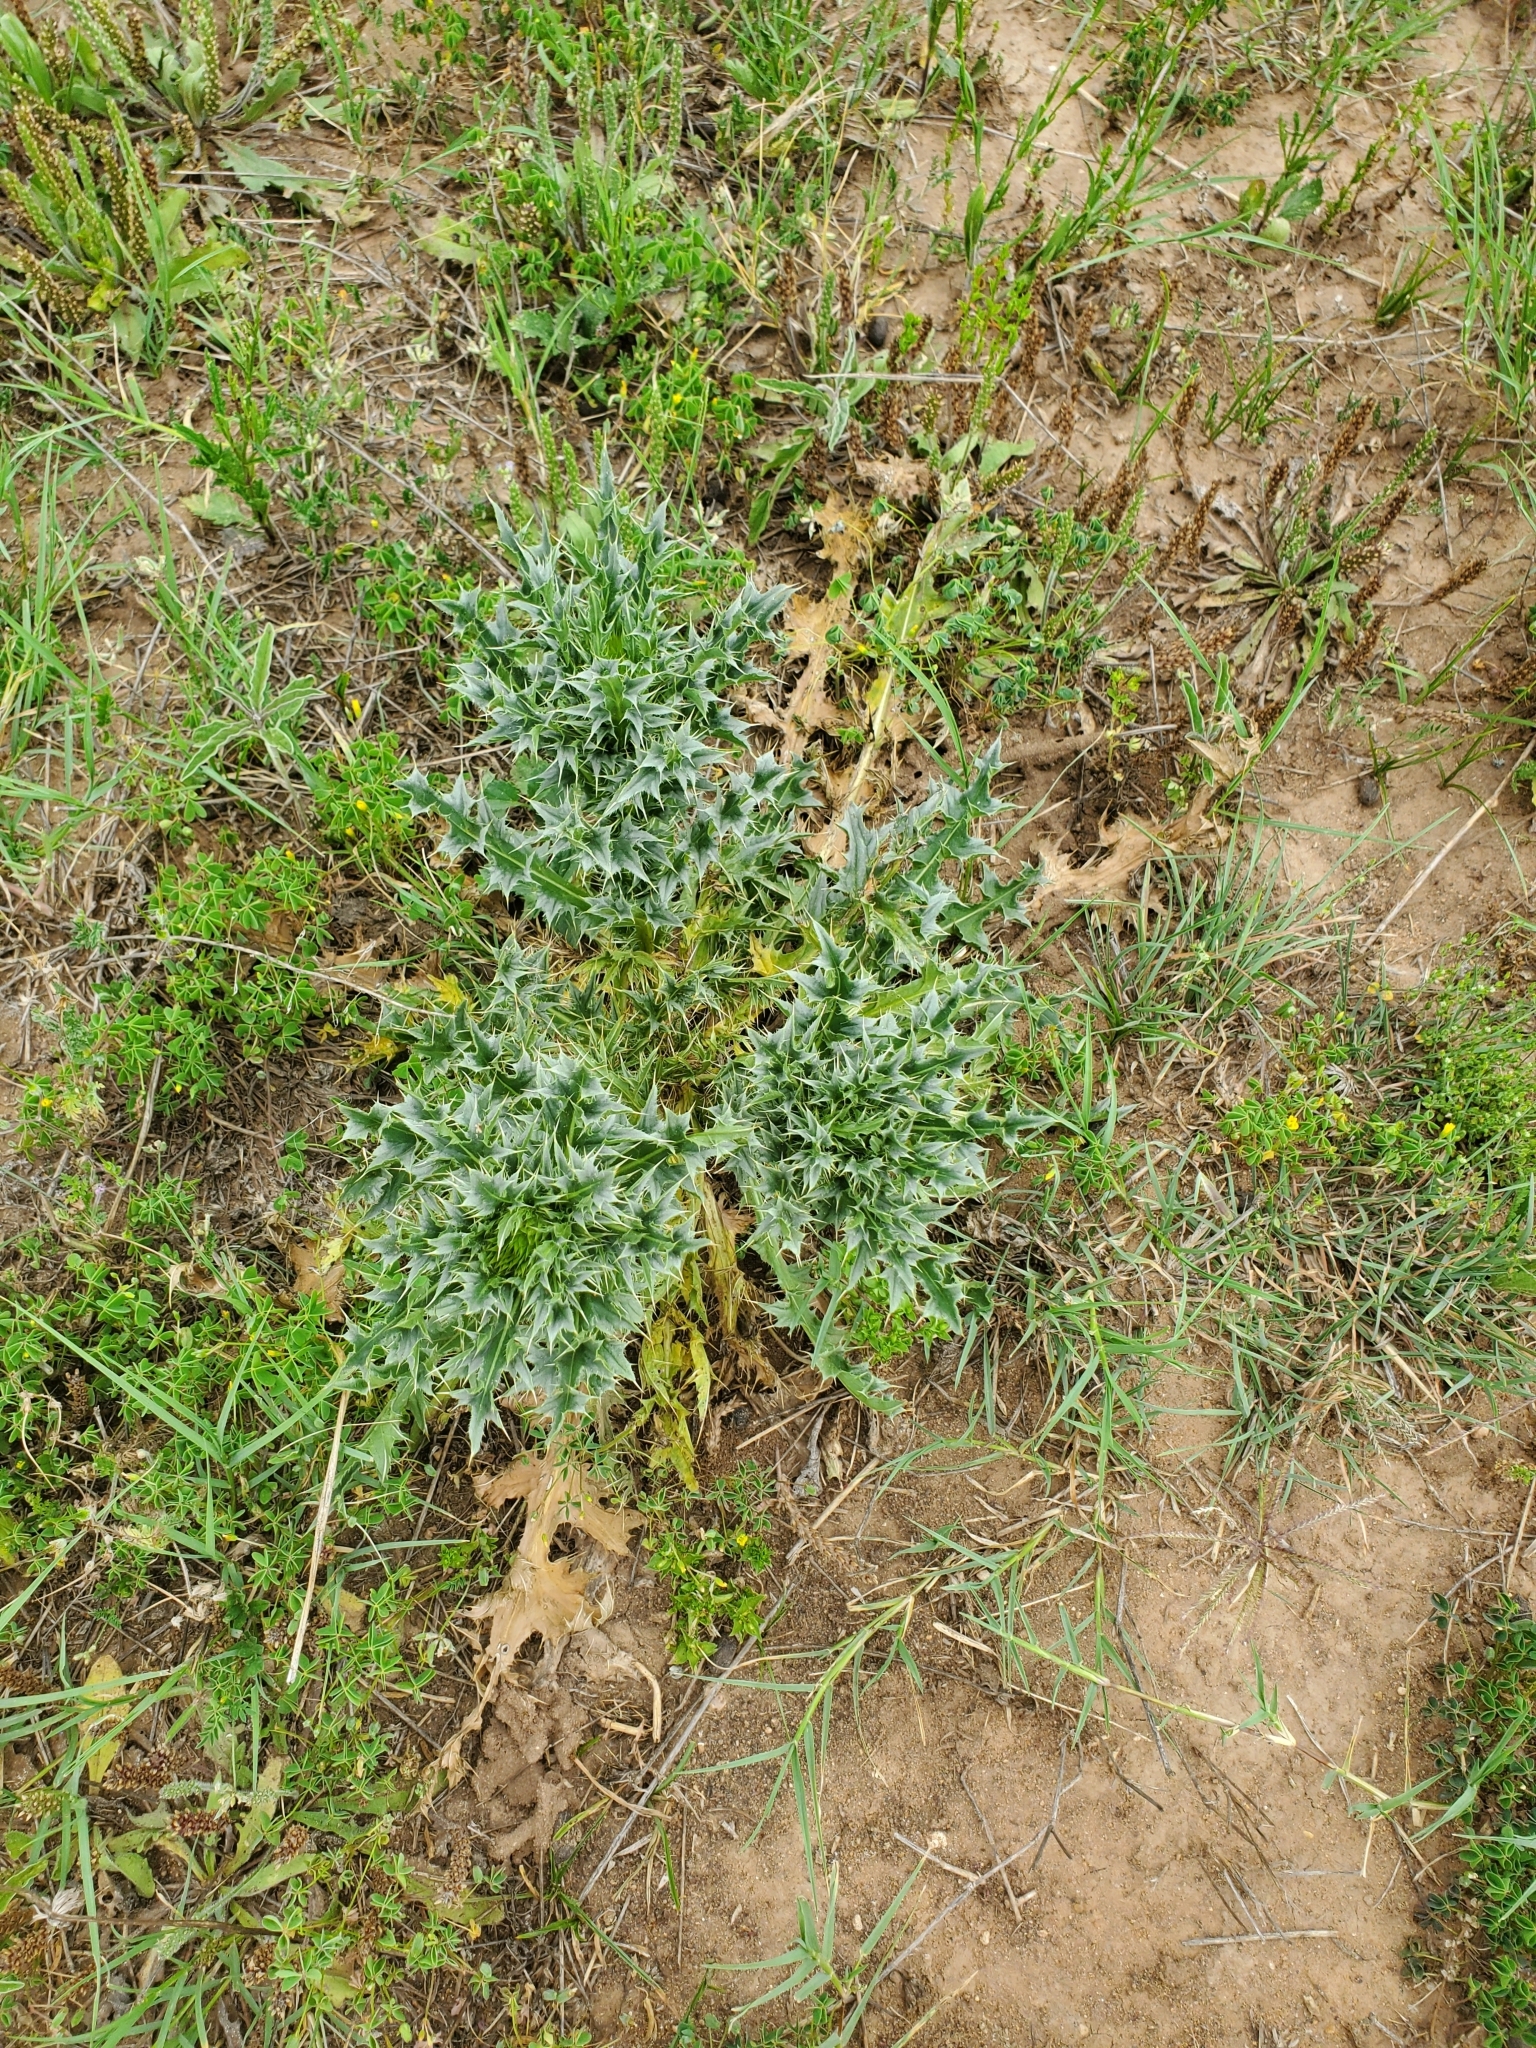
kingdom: Plantae
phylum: Tracheophyta
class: Magnoliopsida
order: Asterales
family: Asteraceae
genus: Carduus
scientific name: Carduus nutans
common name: Musk thistle
